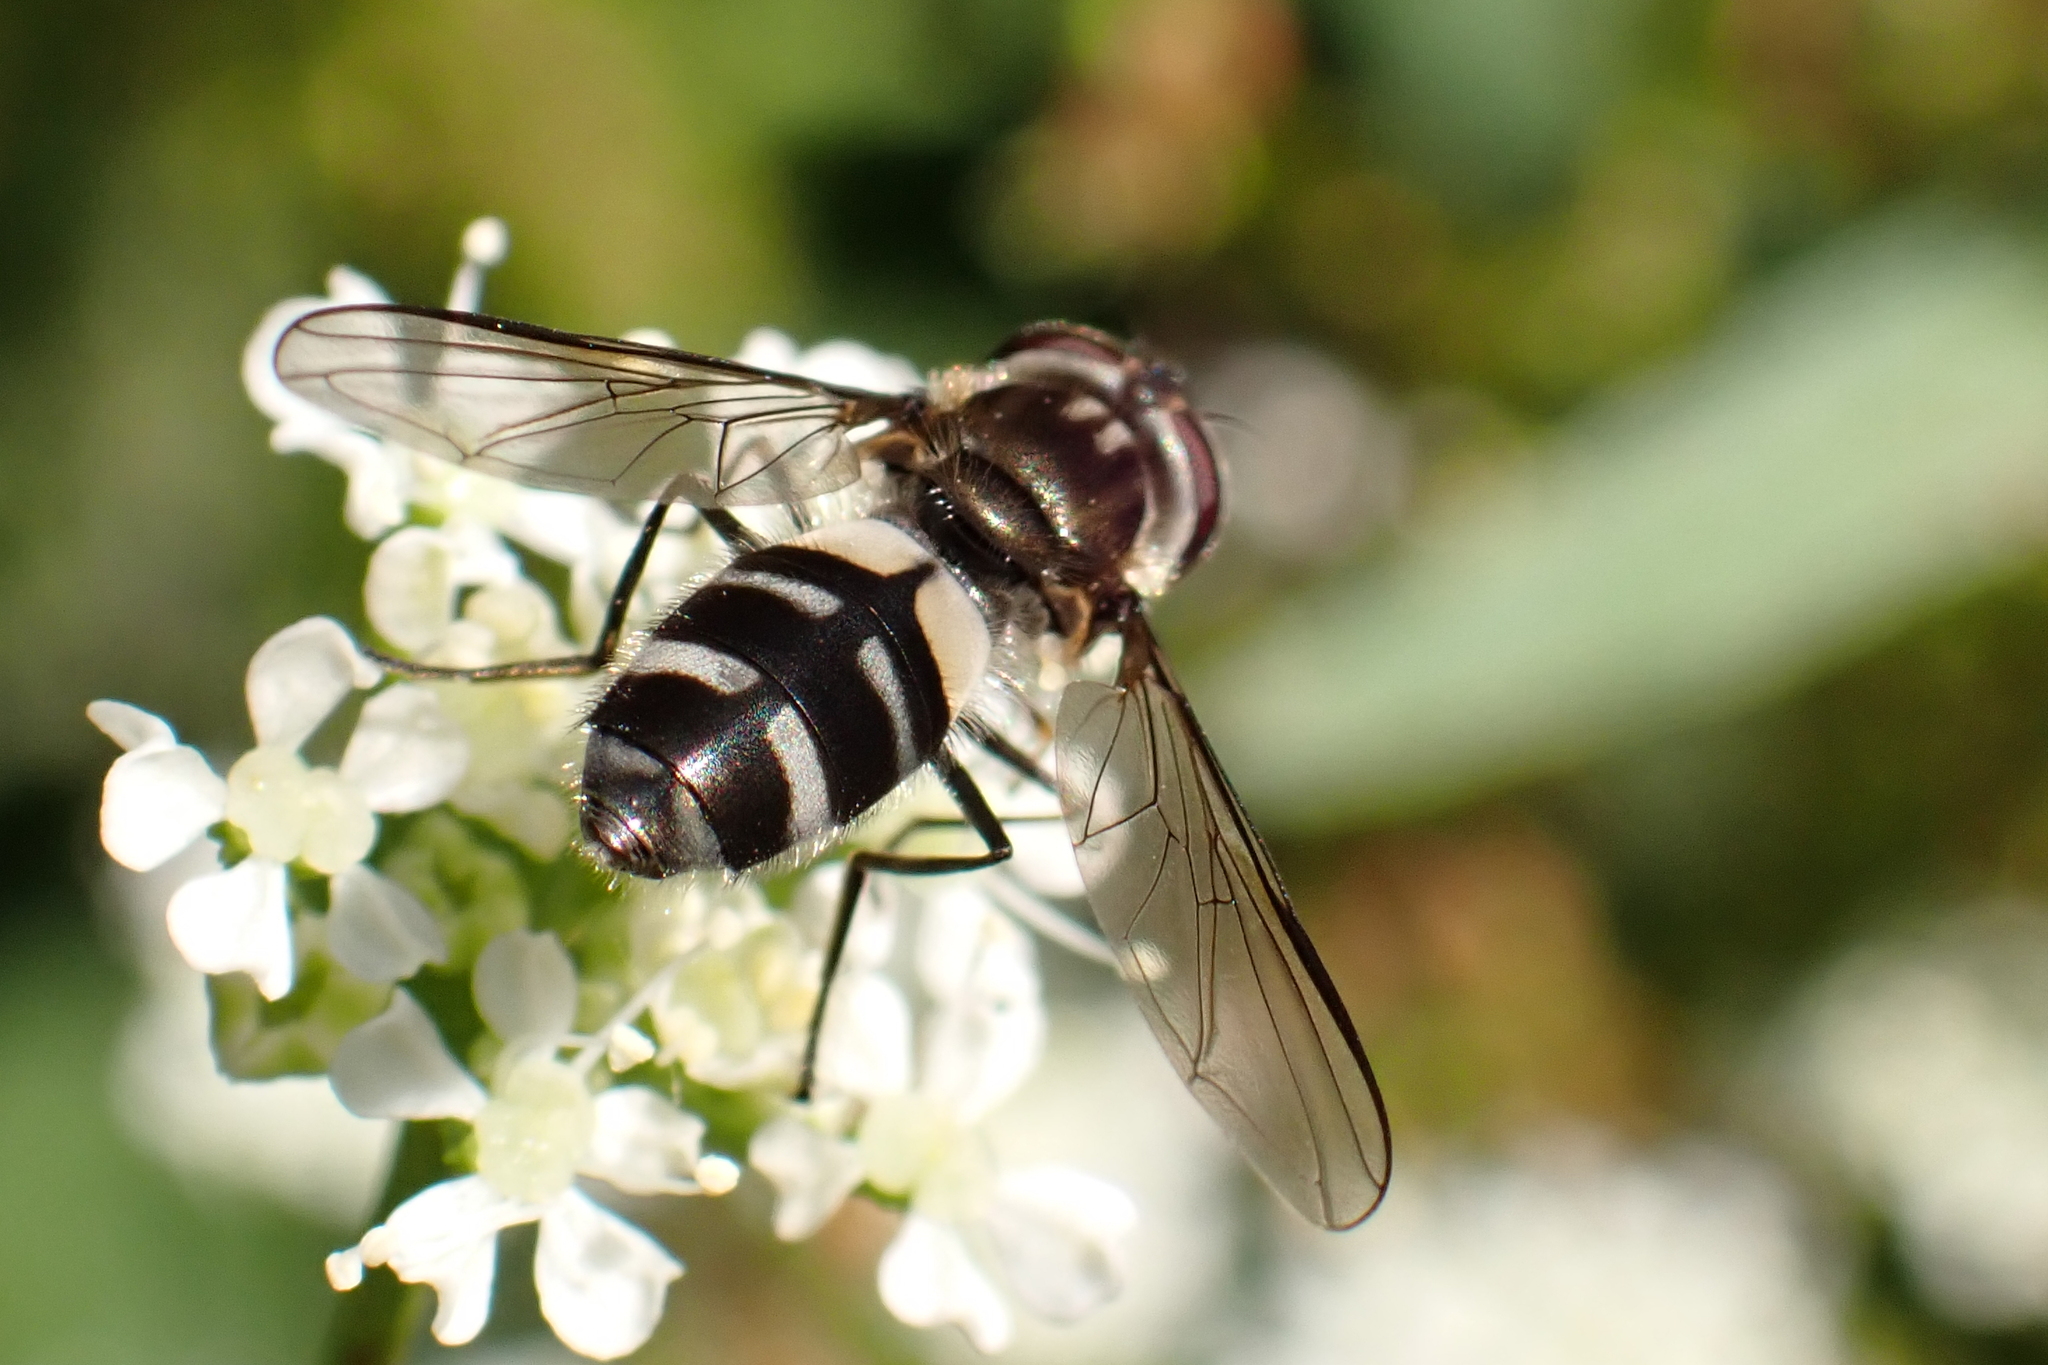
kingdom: Animalia
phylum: Arthropoda
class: Insecta
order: Diptera
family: Syrphidae
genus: Leucozona
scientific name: Leucozona laternaria
